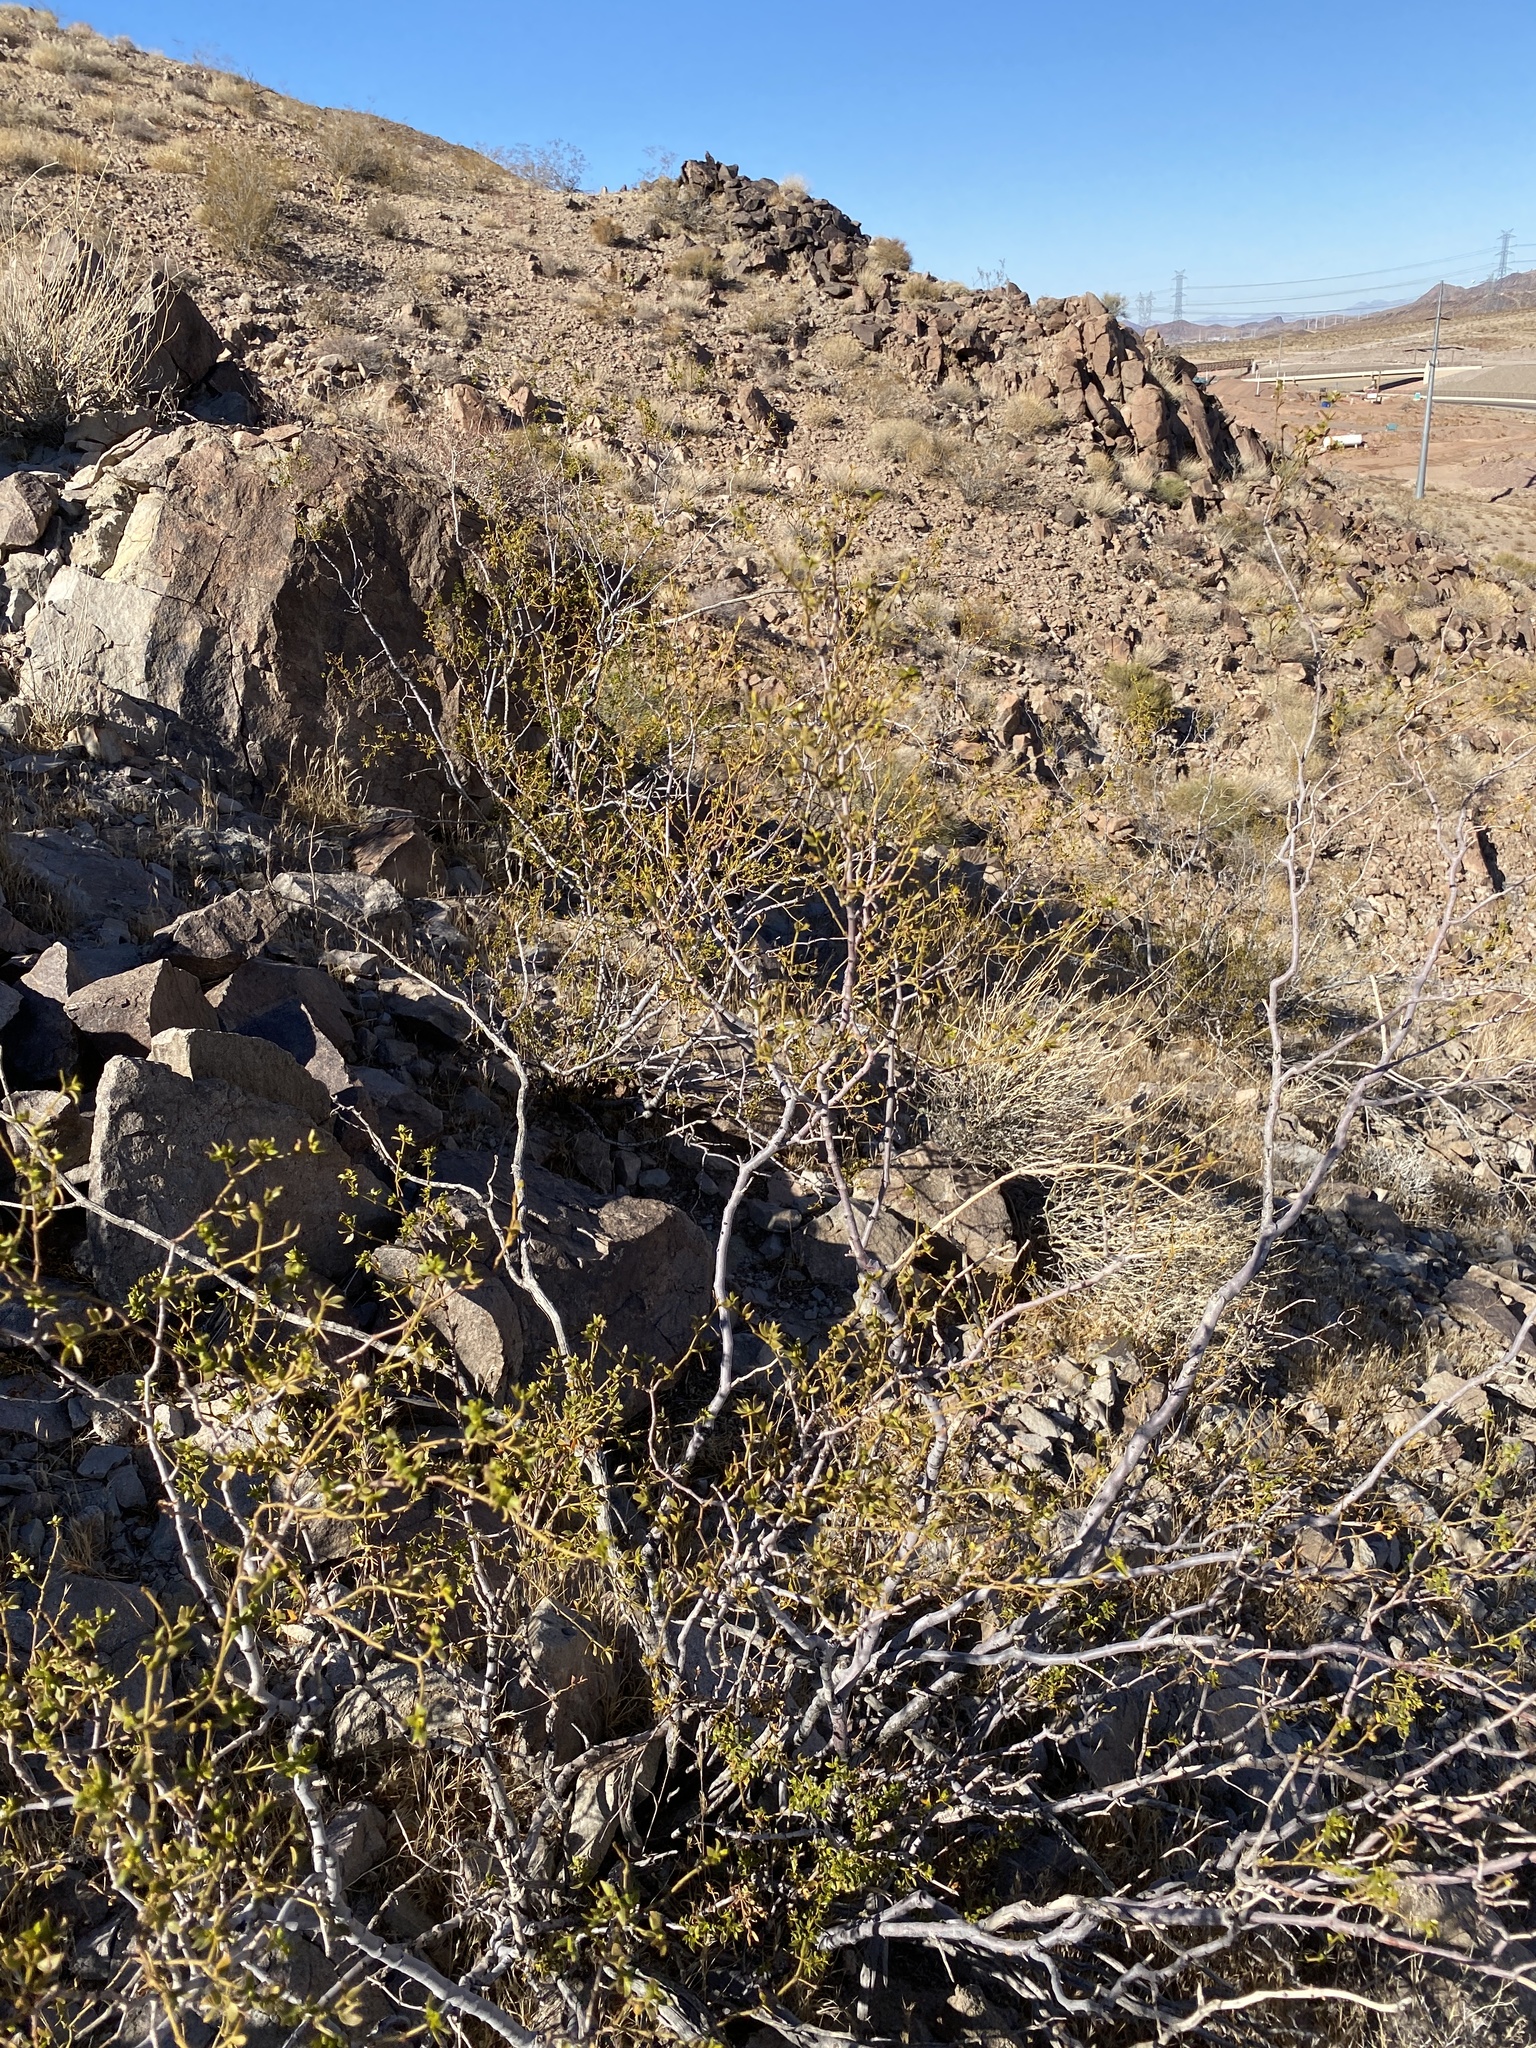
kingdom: Plantae
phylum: Tracheophyta
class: Magnoliopsida
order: Zygophyllales
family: Zygophyllaceae
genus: Larrea
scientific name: Larrea tridentata
